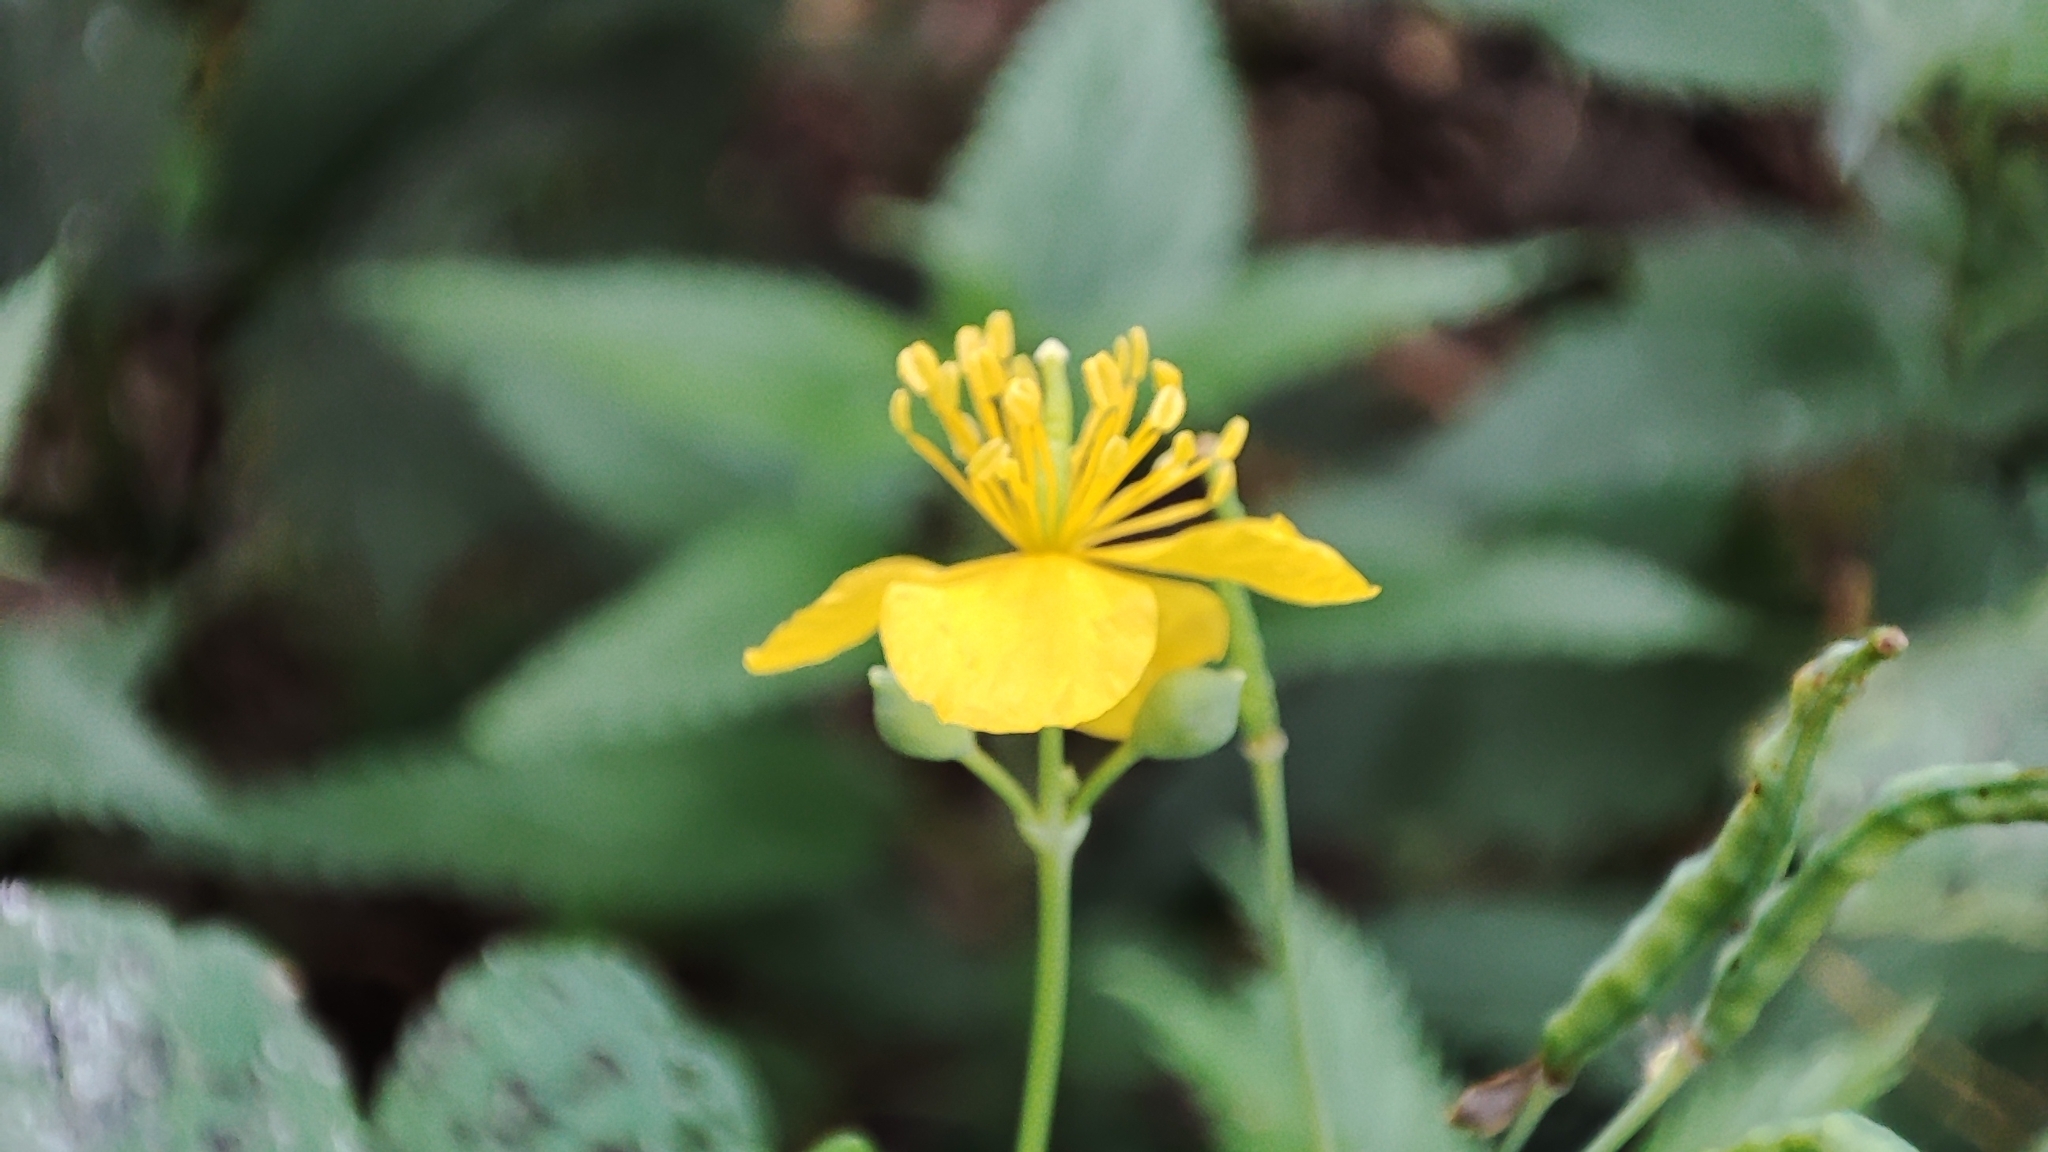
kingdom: Plantae
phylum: Tracheophyta
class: Magnoliopsida
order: Ranunculales
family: Papaveraceae
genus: Chelidonium
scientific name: Chelidonium majus
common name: Greater celandine
